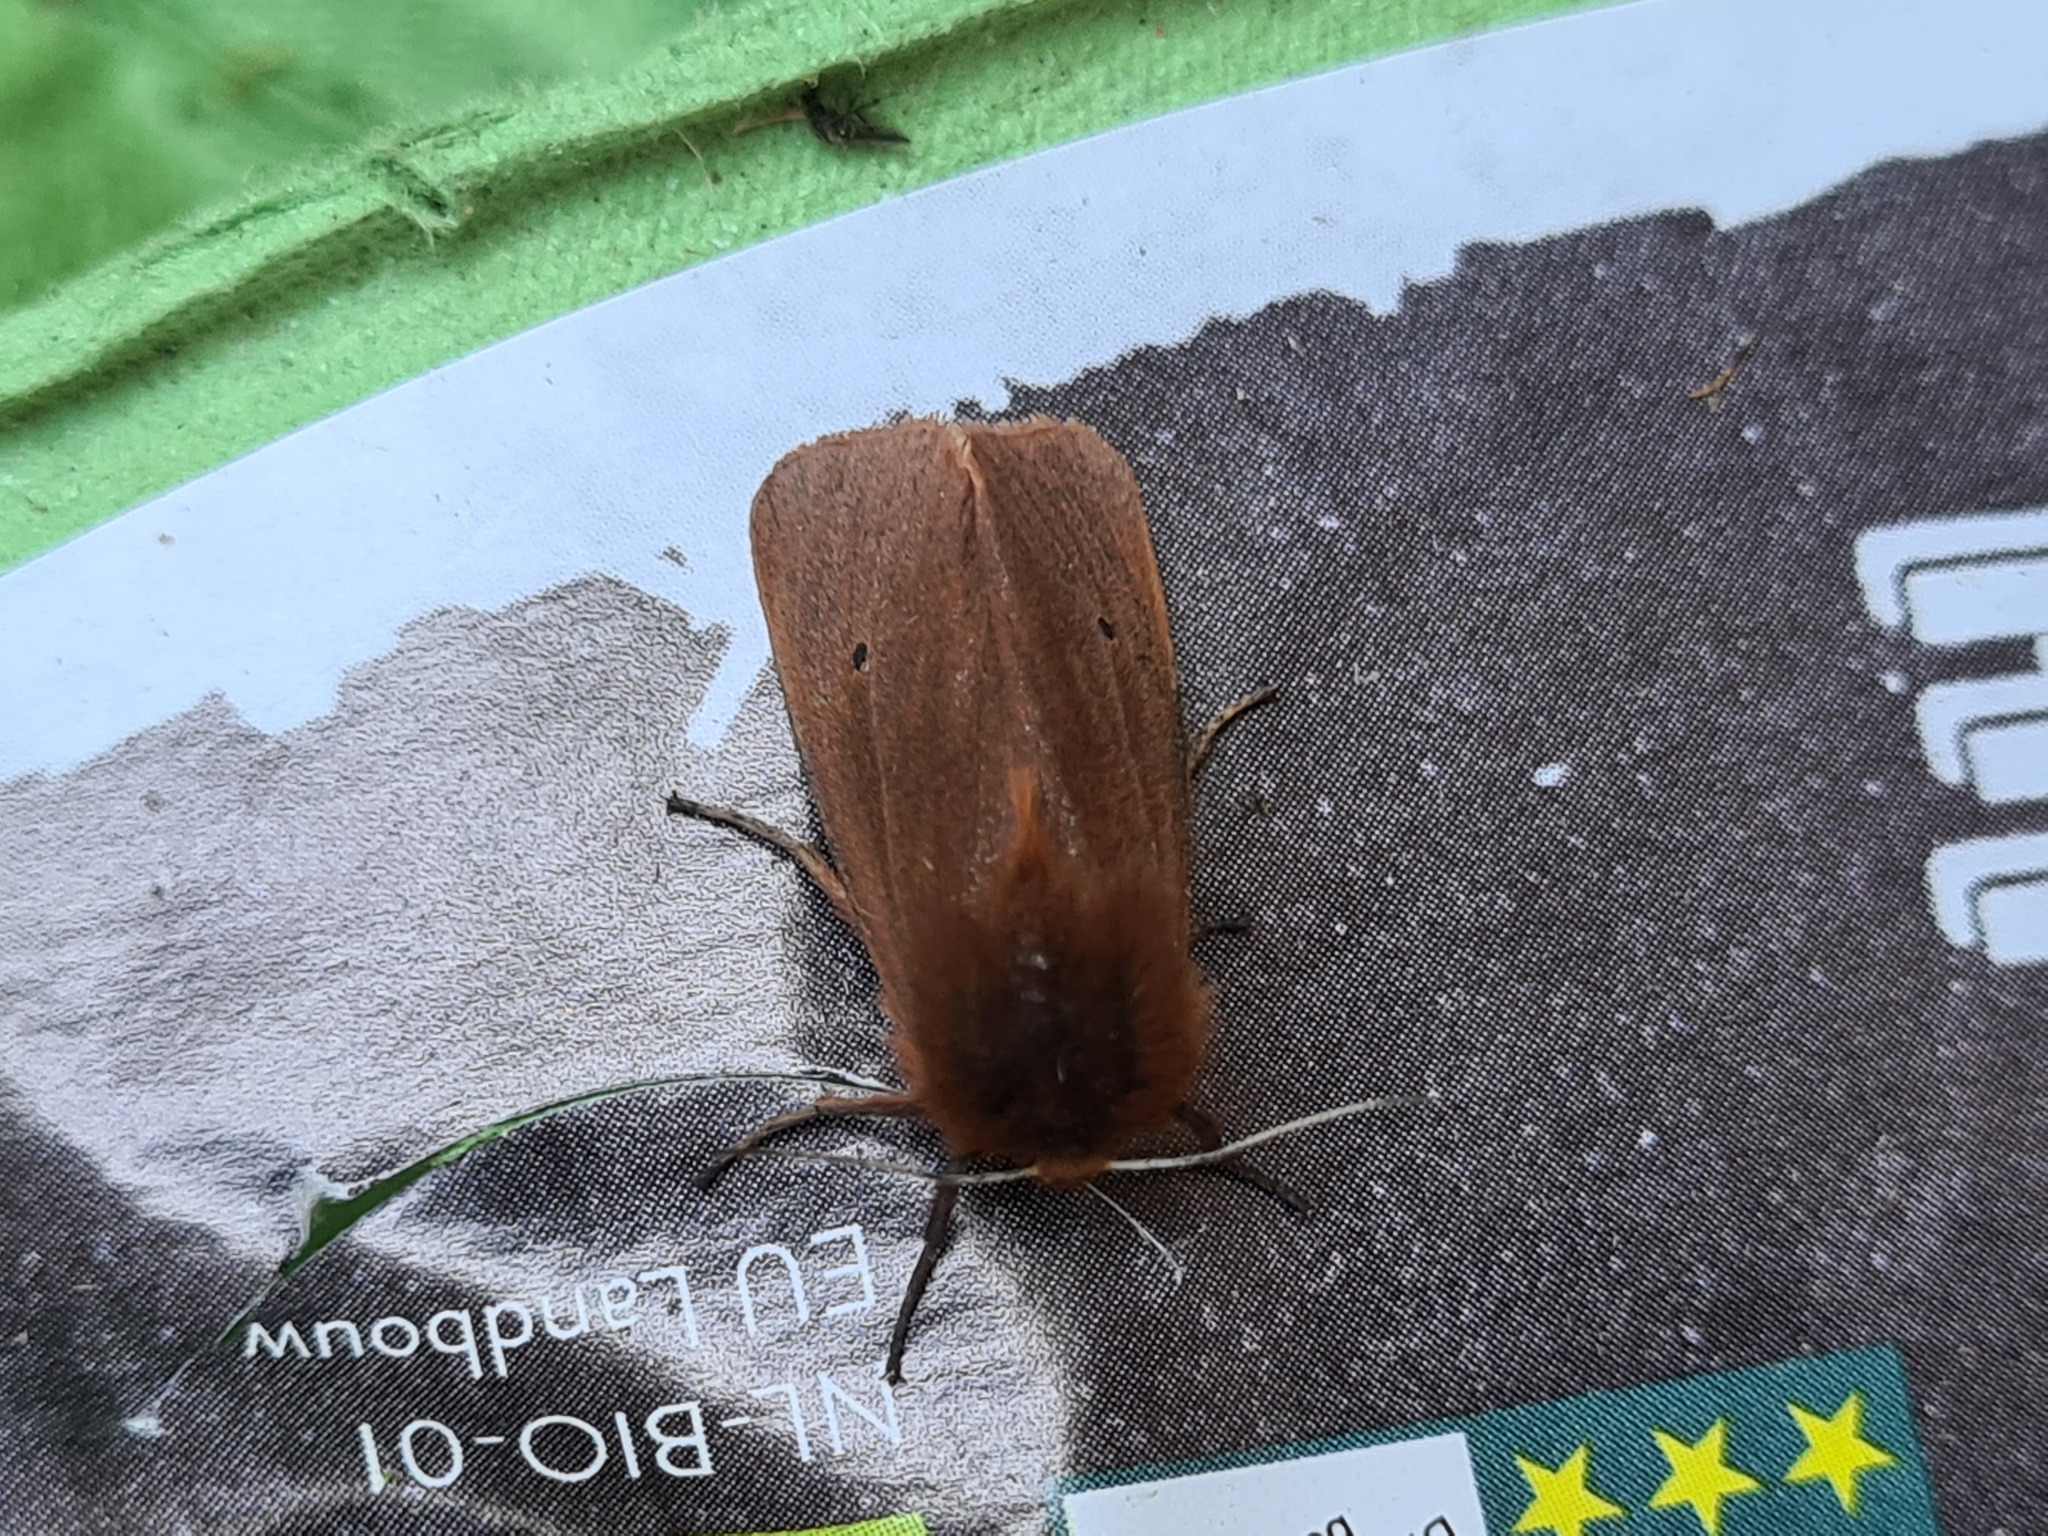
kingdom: Animalia
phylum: Arthropoda
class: Insecta
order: Lepidoptera
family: Erebidae
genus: Phragmatobia
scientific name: Phragmatobia fuliginosa
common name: Ruby tiger
